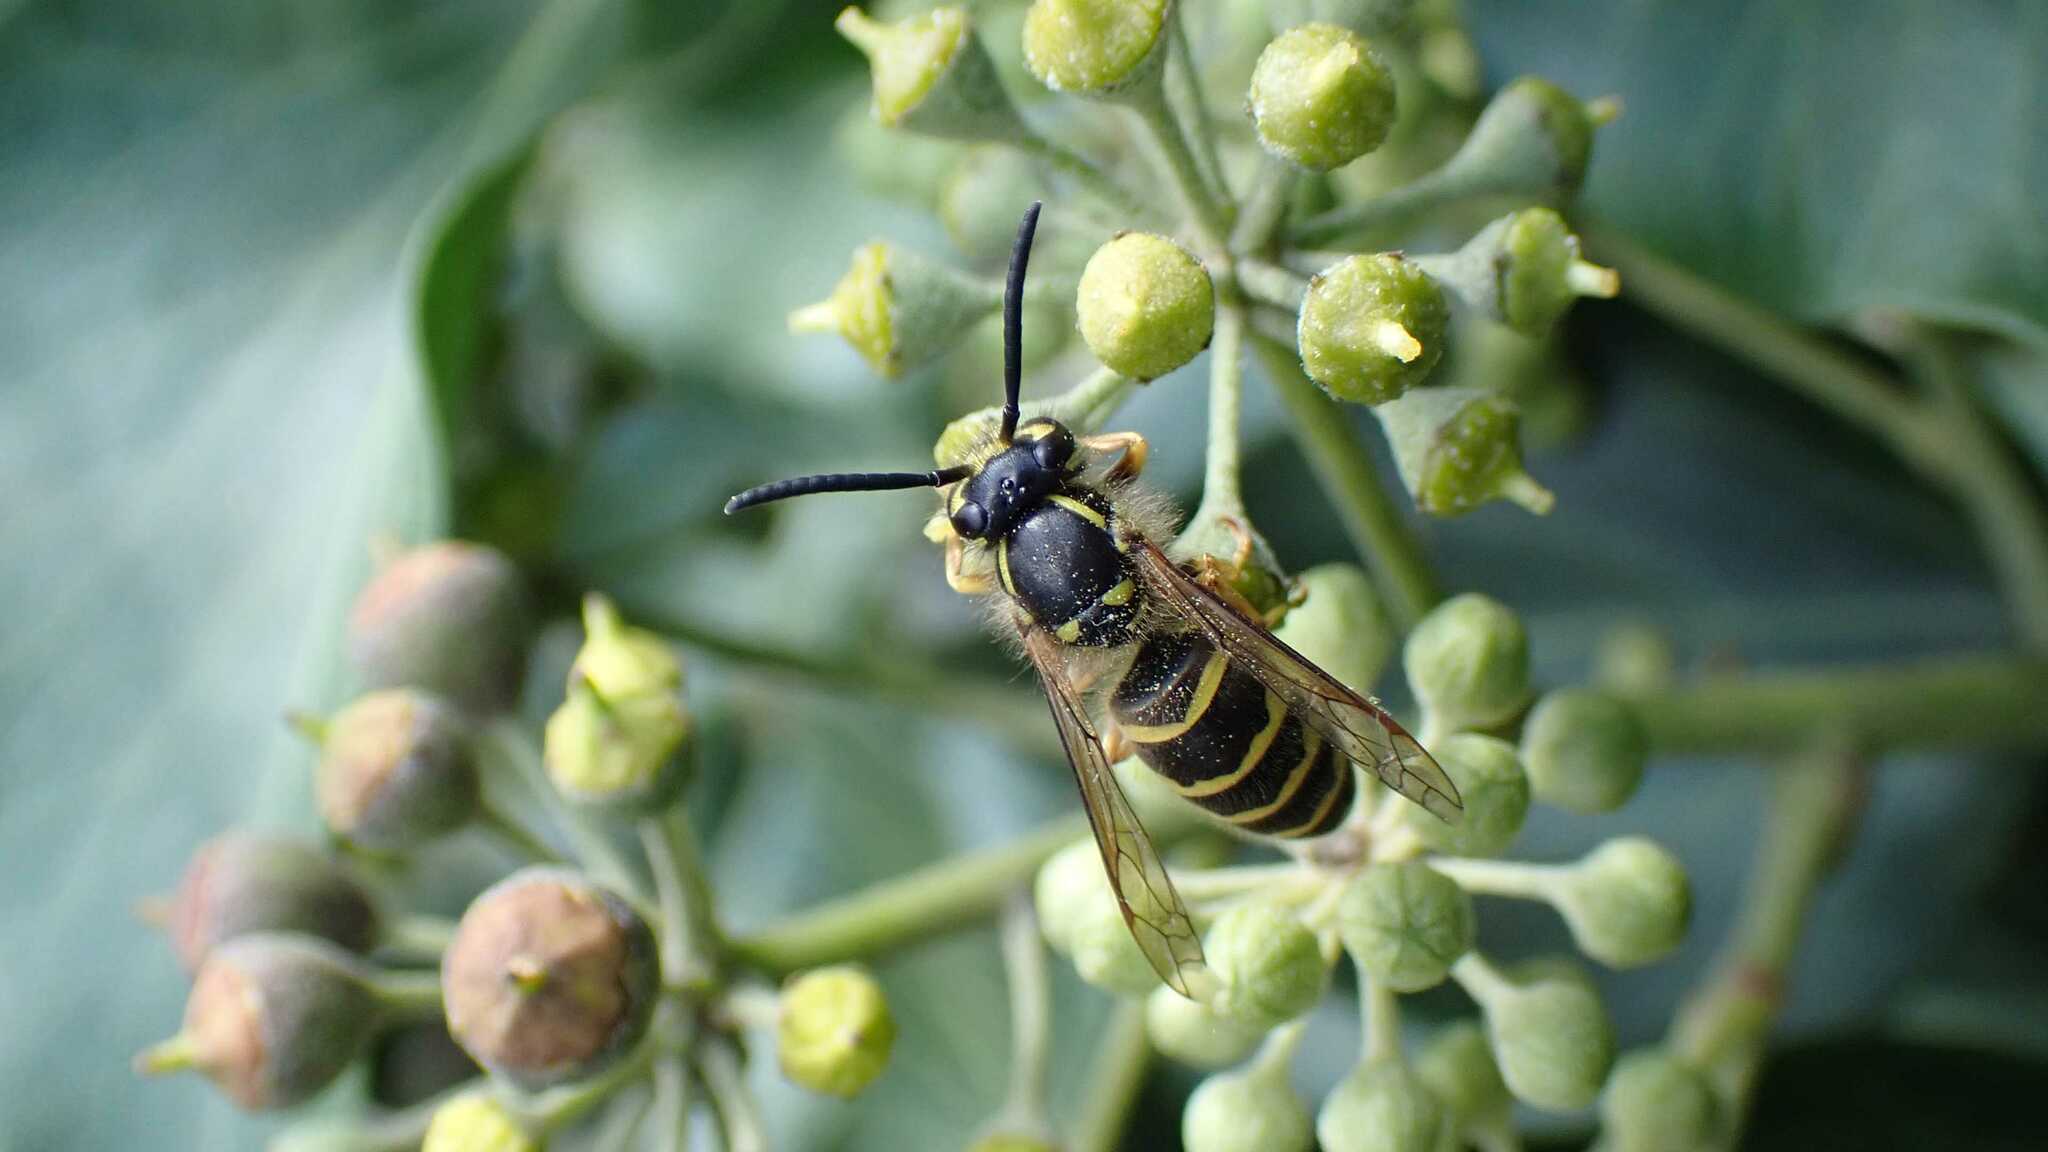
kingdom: Animalia
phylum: Arthropoda
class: Insecta
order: Hymenoptera
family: Vespidae
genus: Vespula
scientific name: Vespula vulgaris
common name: Common wasp
